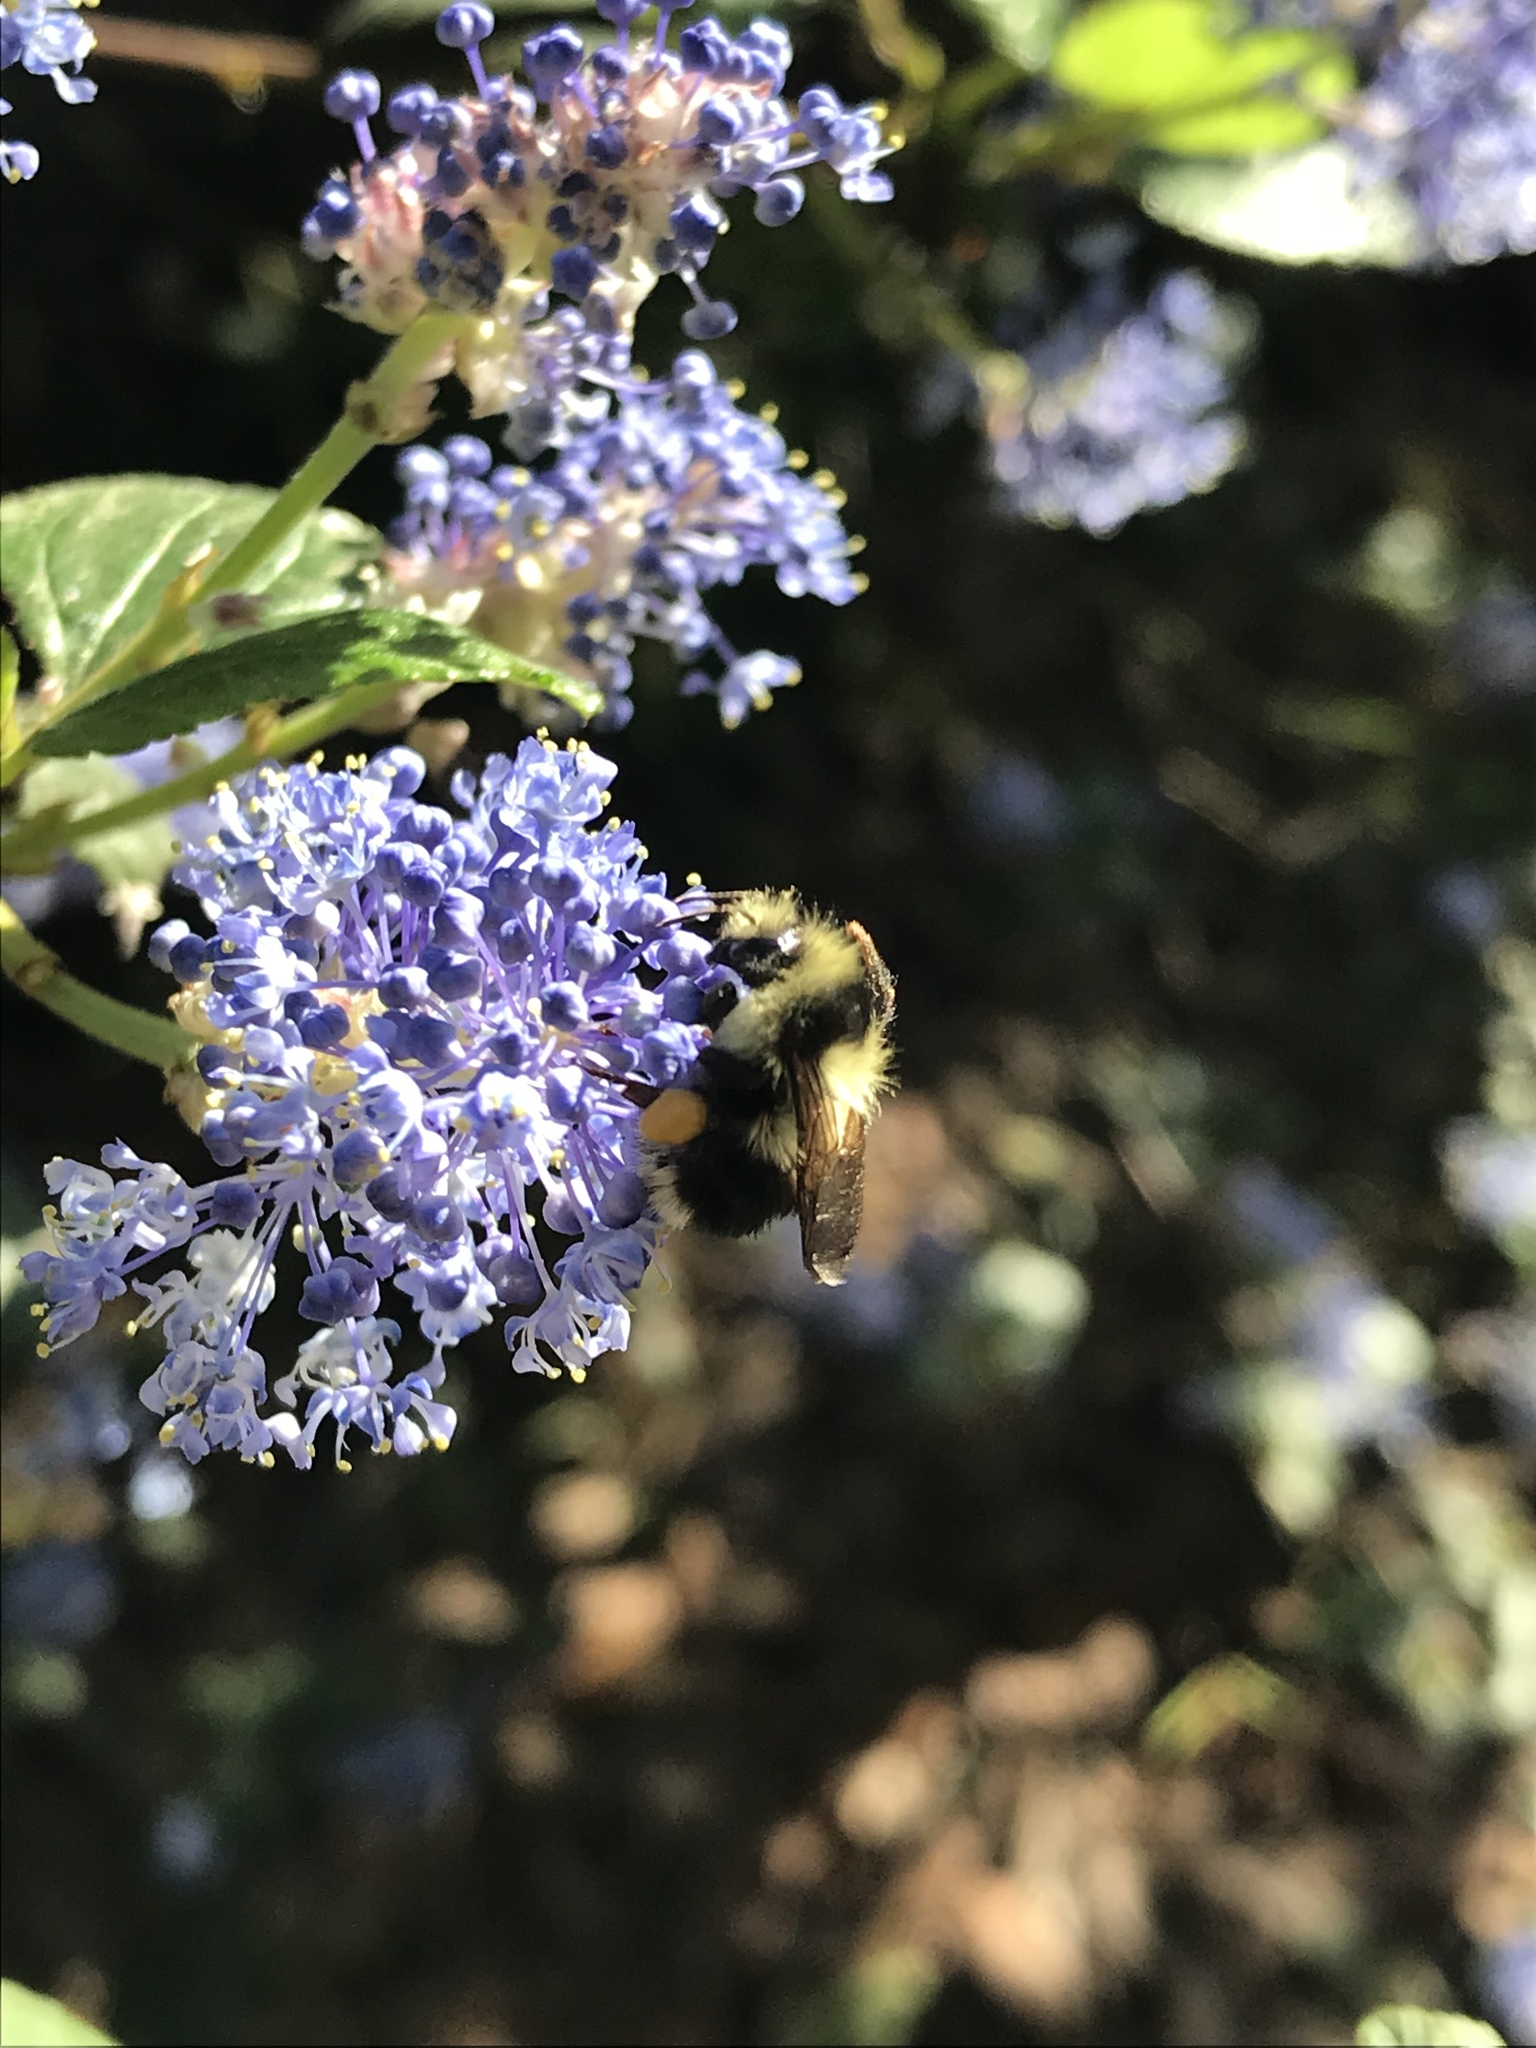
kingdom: Animalia
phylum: Arthropoda
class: Insecta
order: Hymenoptera
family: Apidae
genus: Bombus
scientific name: Bombus melanopygus
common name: Black tail bumble bee
